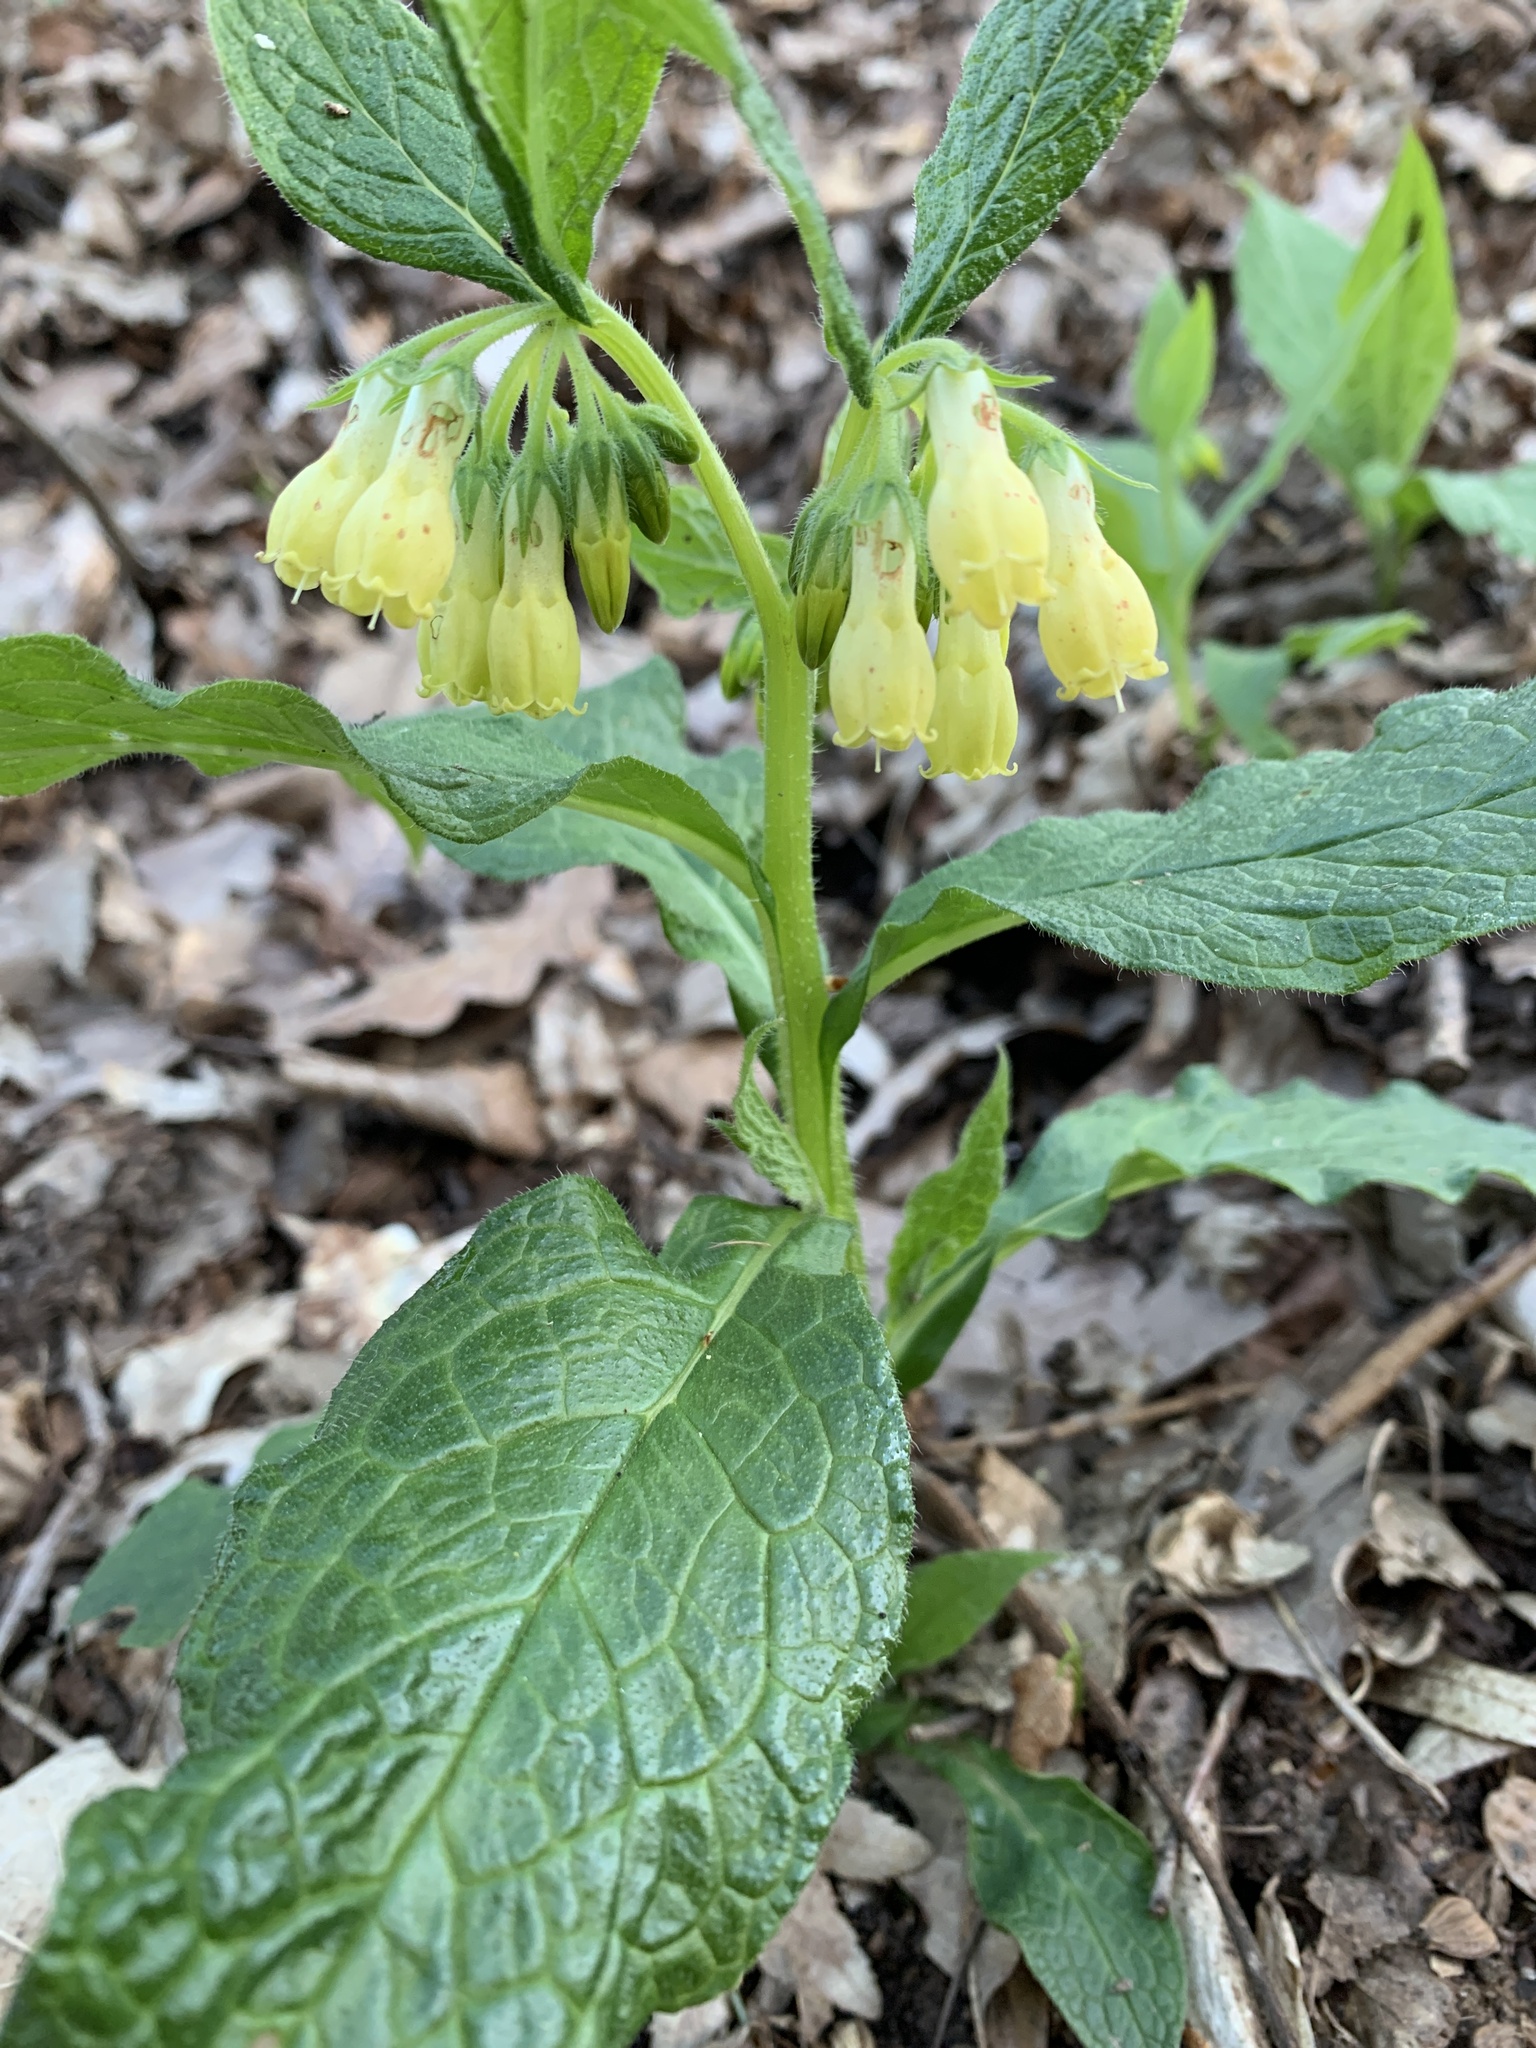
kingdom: Plantae
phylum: Tracheophyta
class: Magnoliopsida
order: Boraginales
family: Boraginaceae
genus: Symphytum
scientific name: Symphytum tuberosum
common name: Tuberous comfrey
